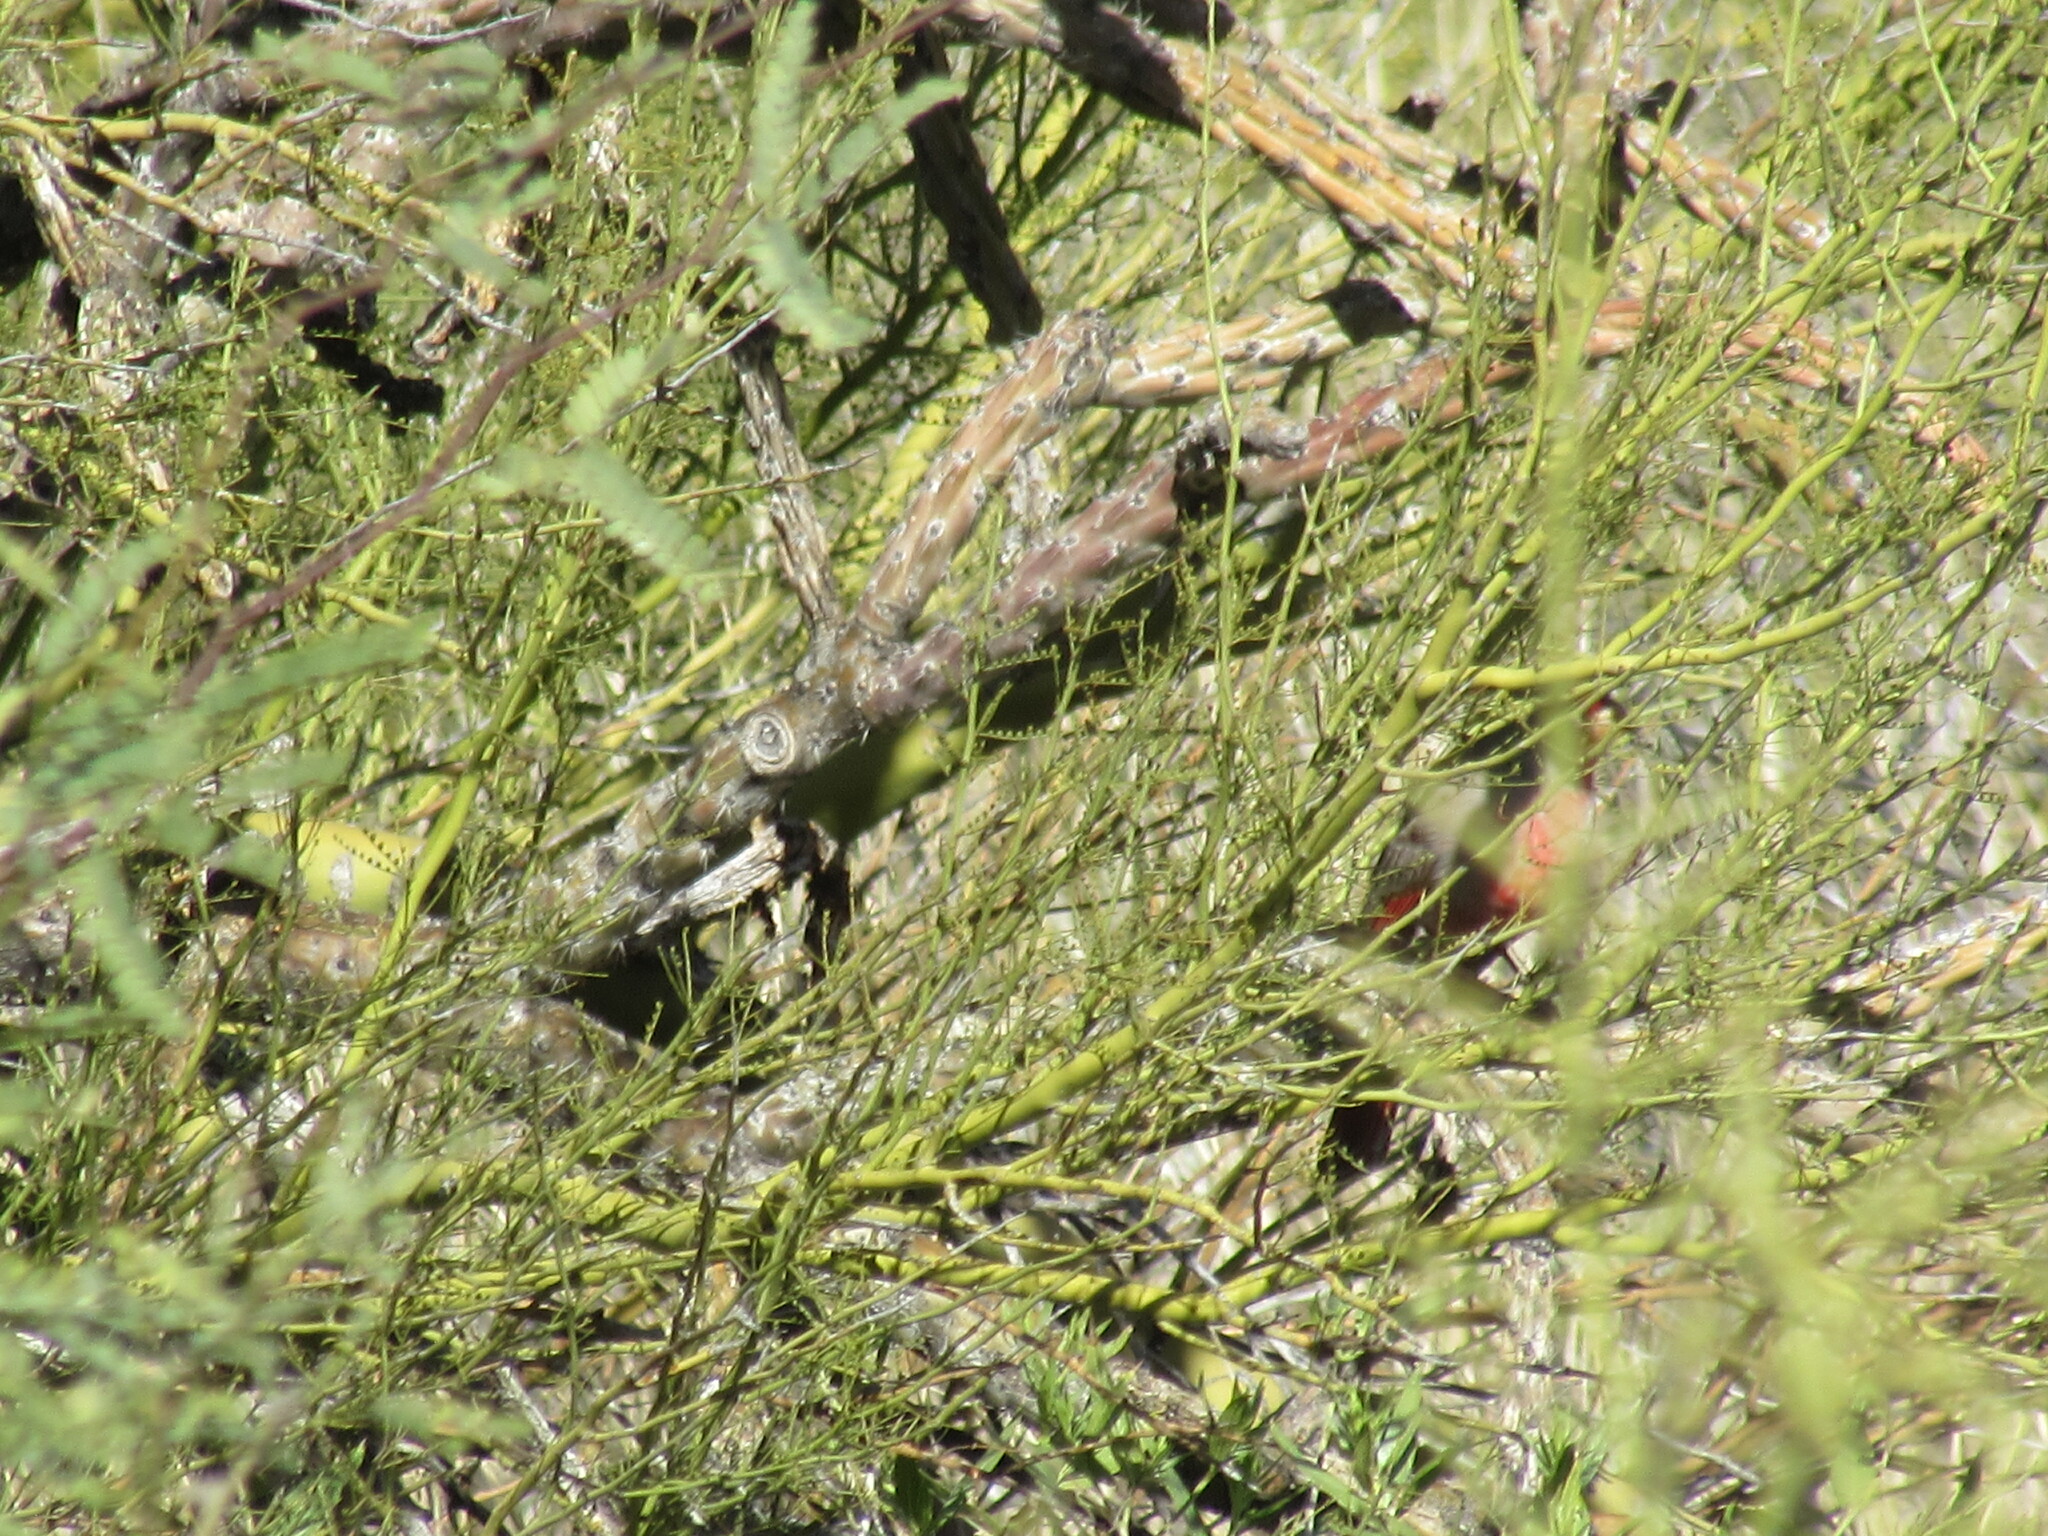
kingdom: Animalia
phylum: Chordata
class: Aves
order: Passeriformes
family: Cardinalidae
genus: Cardinalis
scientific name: Cardinalis sinuatus
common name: Pyrrhuloxia
